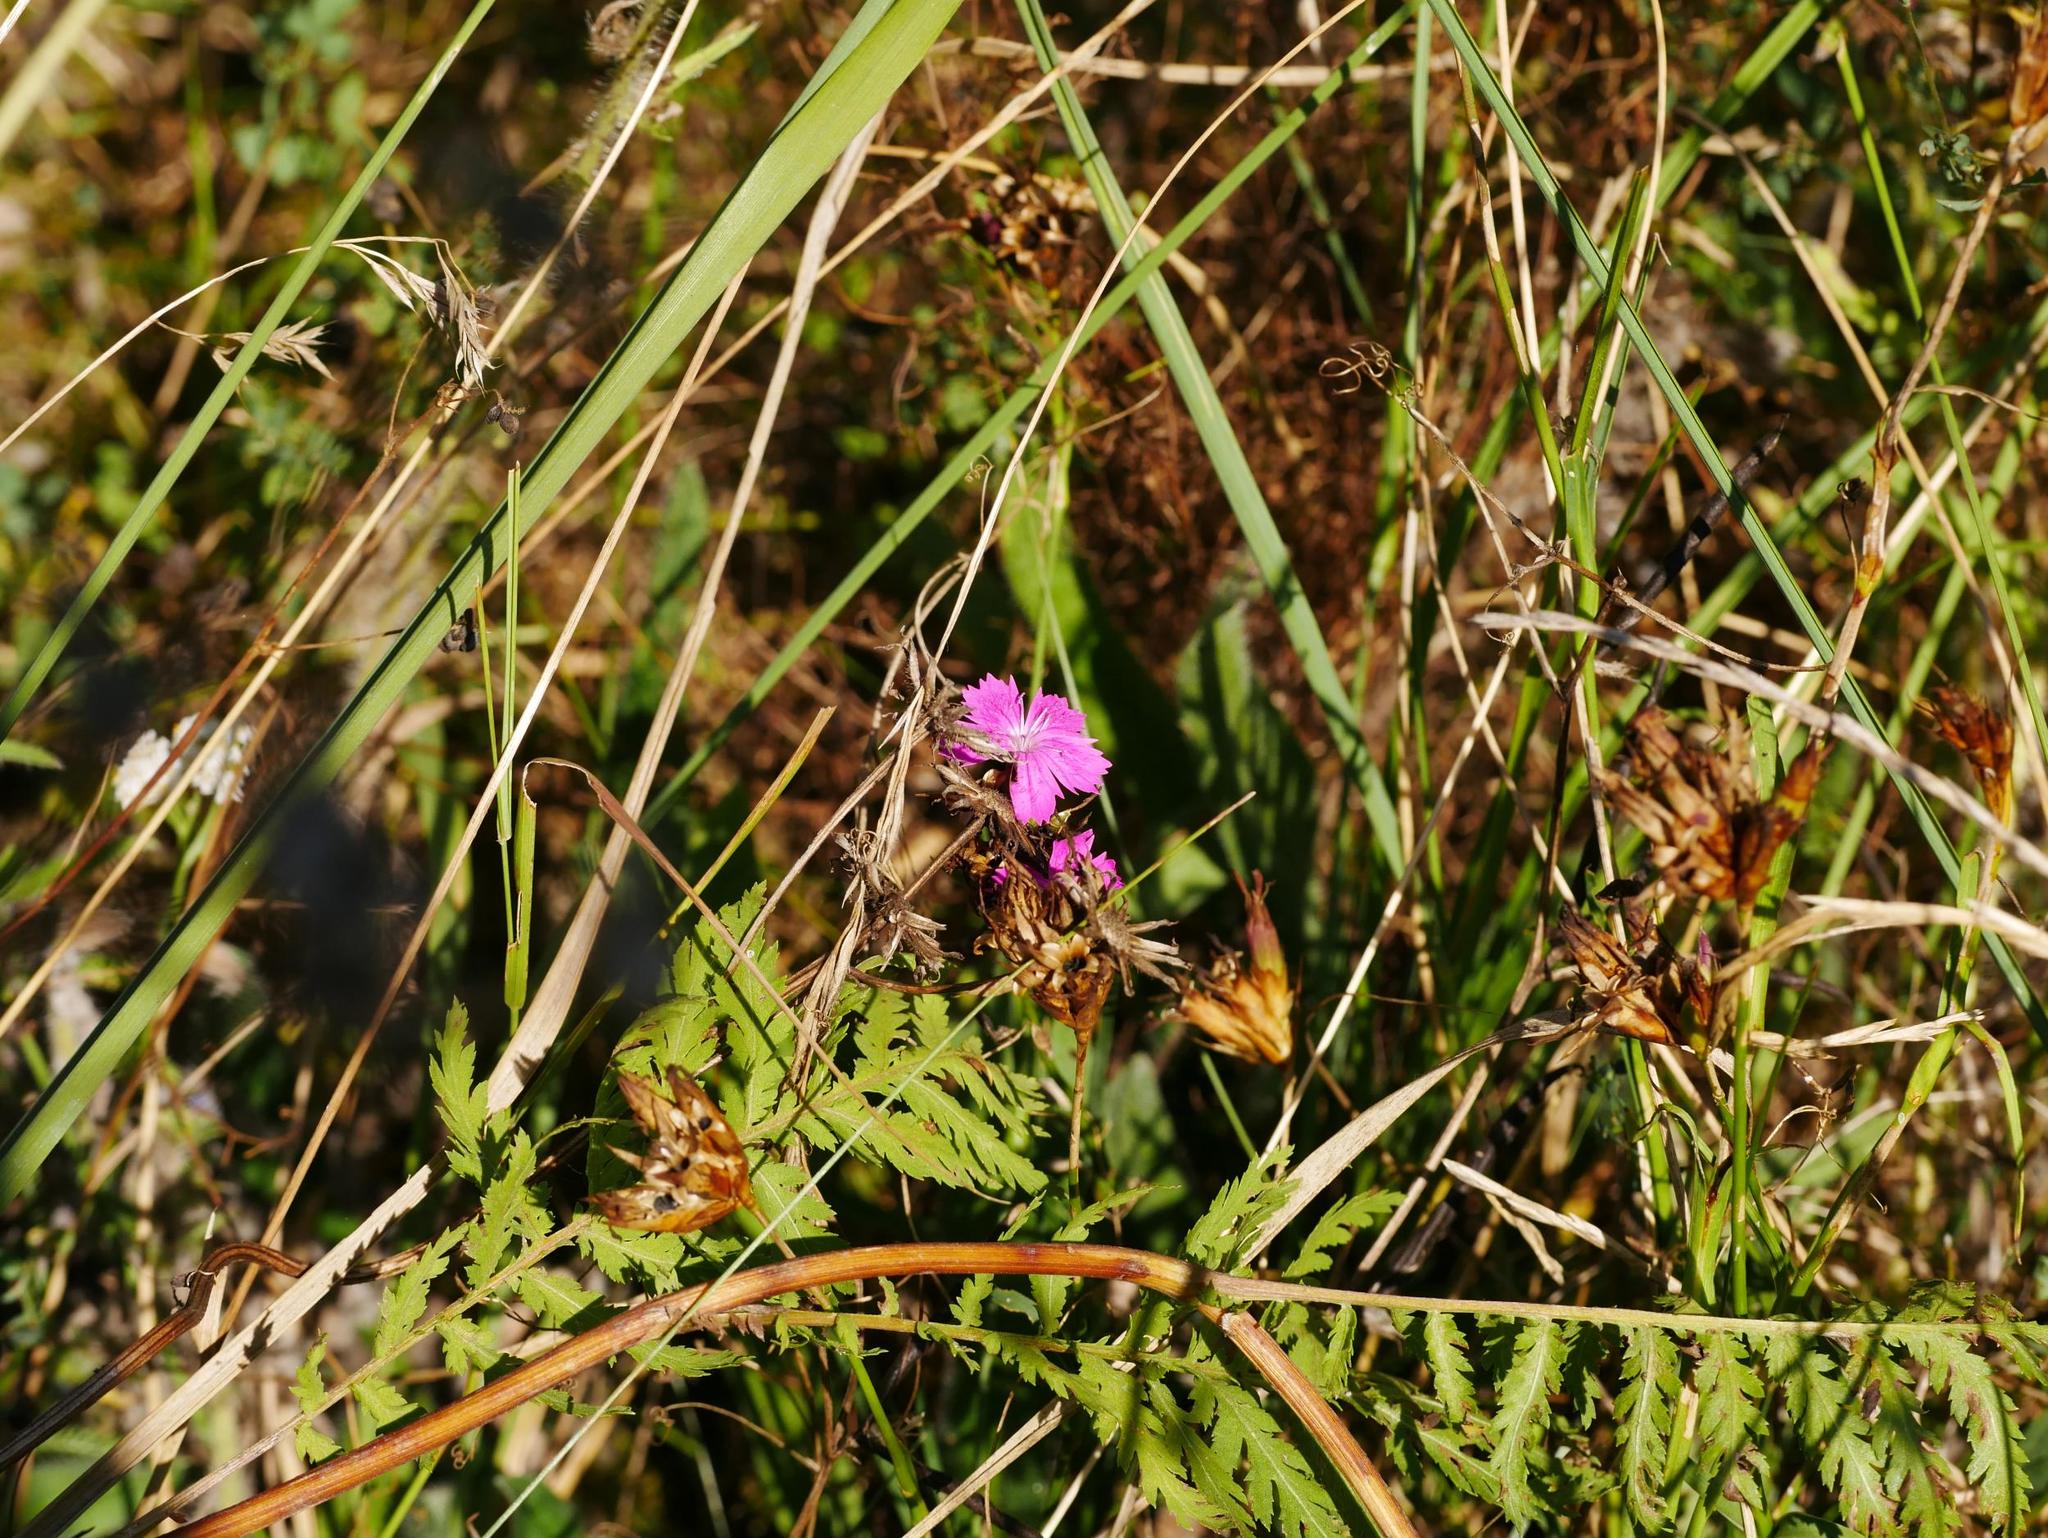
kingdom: Plantae
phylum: Tracheophyta
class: Magnoliopsida
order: Caryophyllales
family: Caryophyllaceae
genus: Dianthus
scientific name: Dianthus carthusianorum
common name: Carthusian pink
